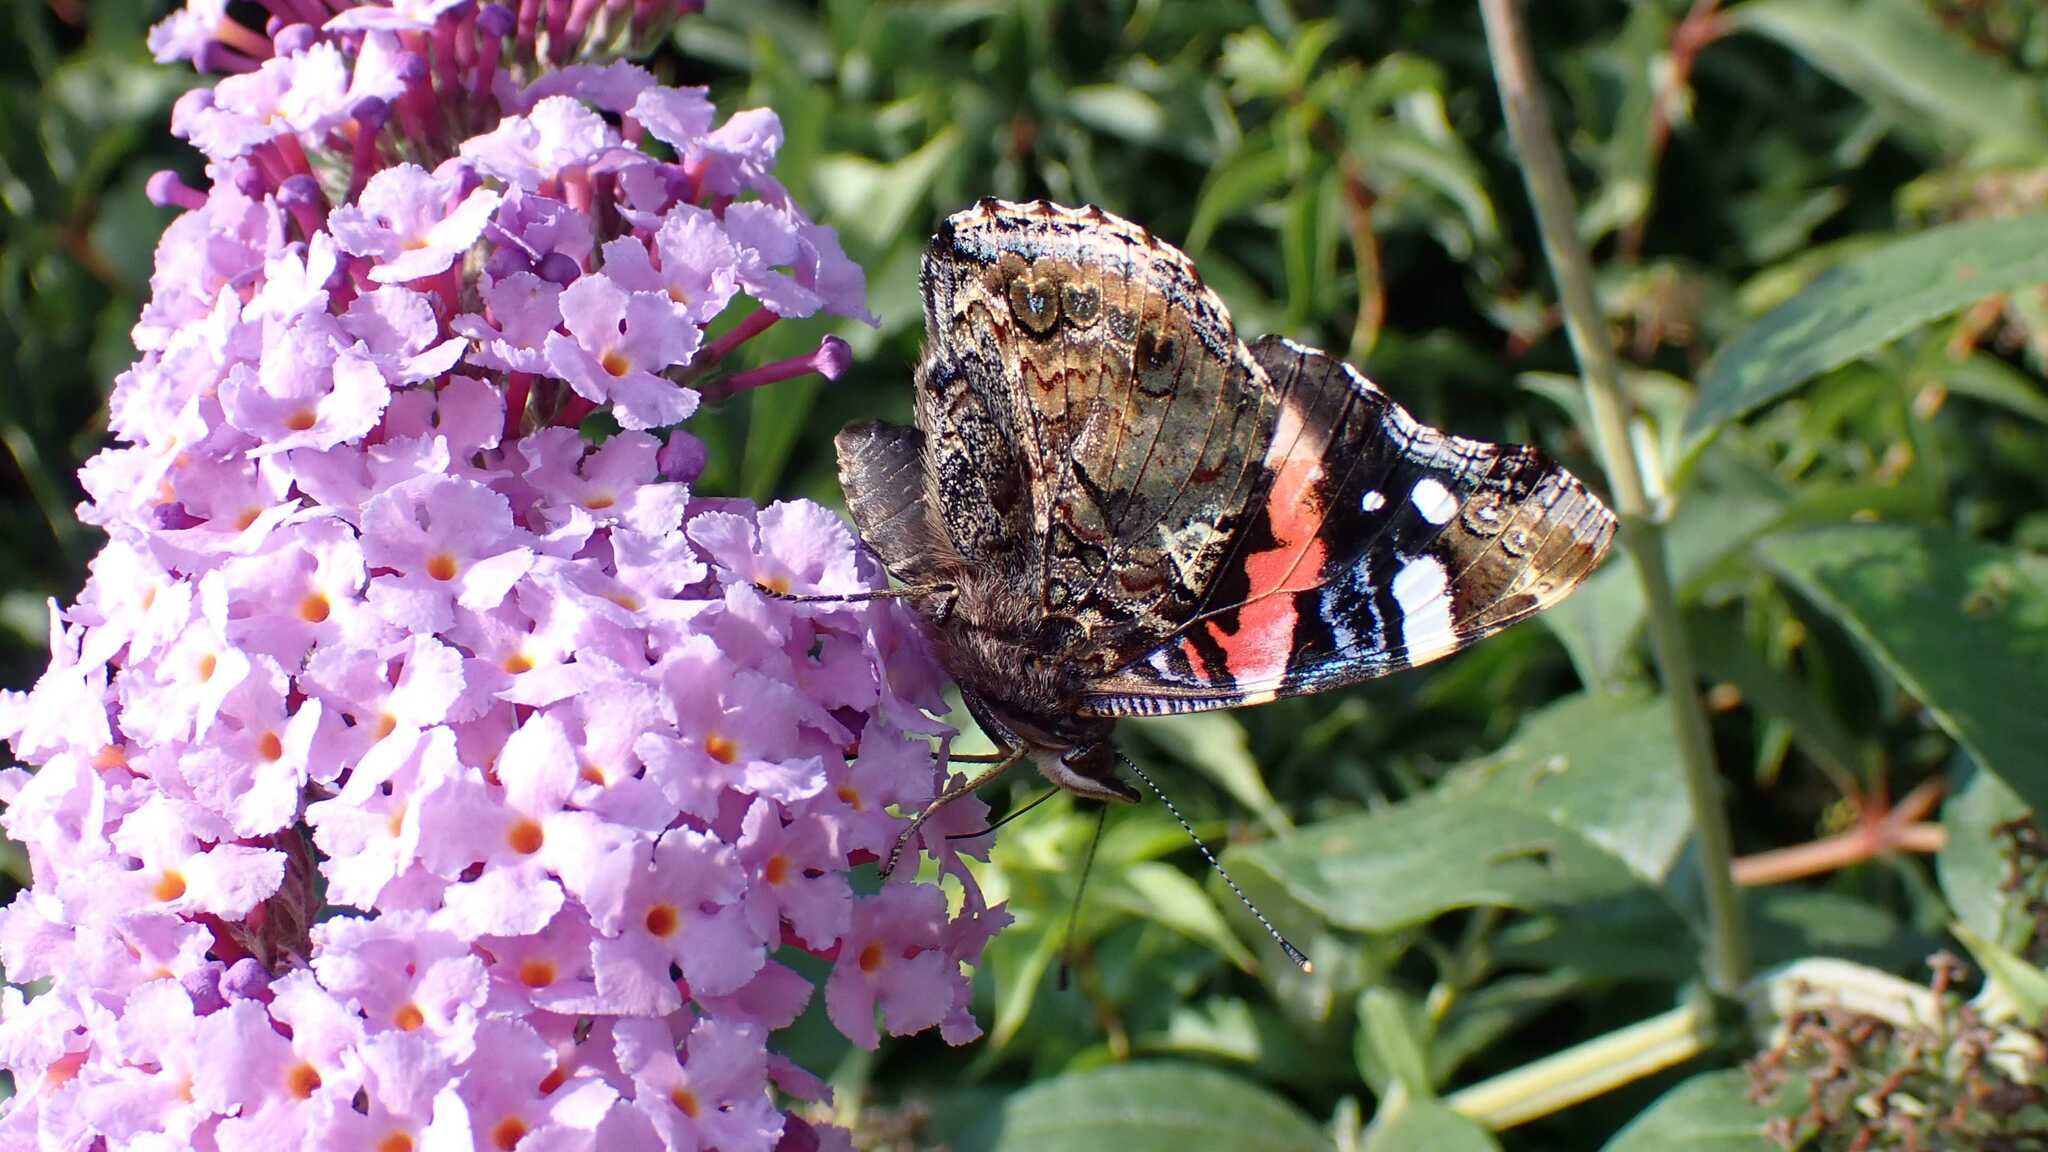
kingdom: Animalia
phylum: Arthropoda
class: Insecta
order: Lepidoptera
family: Nymphalidae
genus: Vanessa
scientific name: Vanessa atalanta
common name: Red admiral
